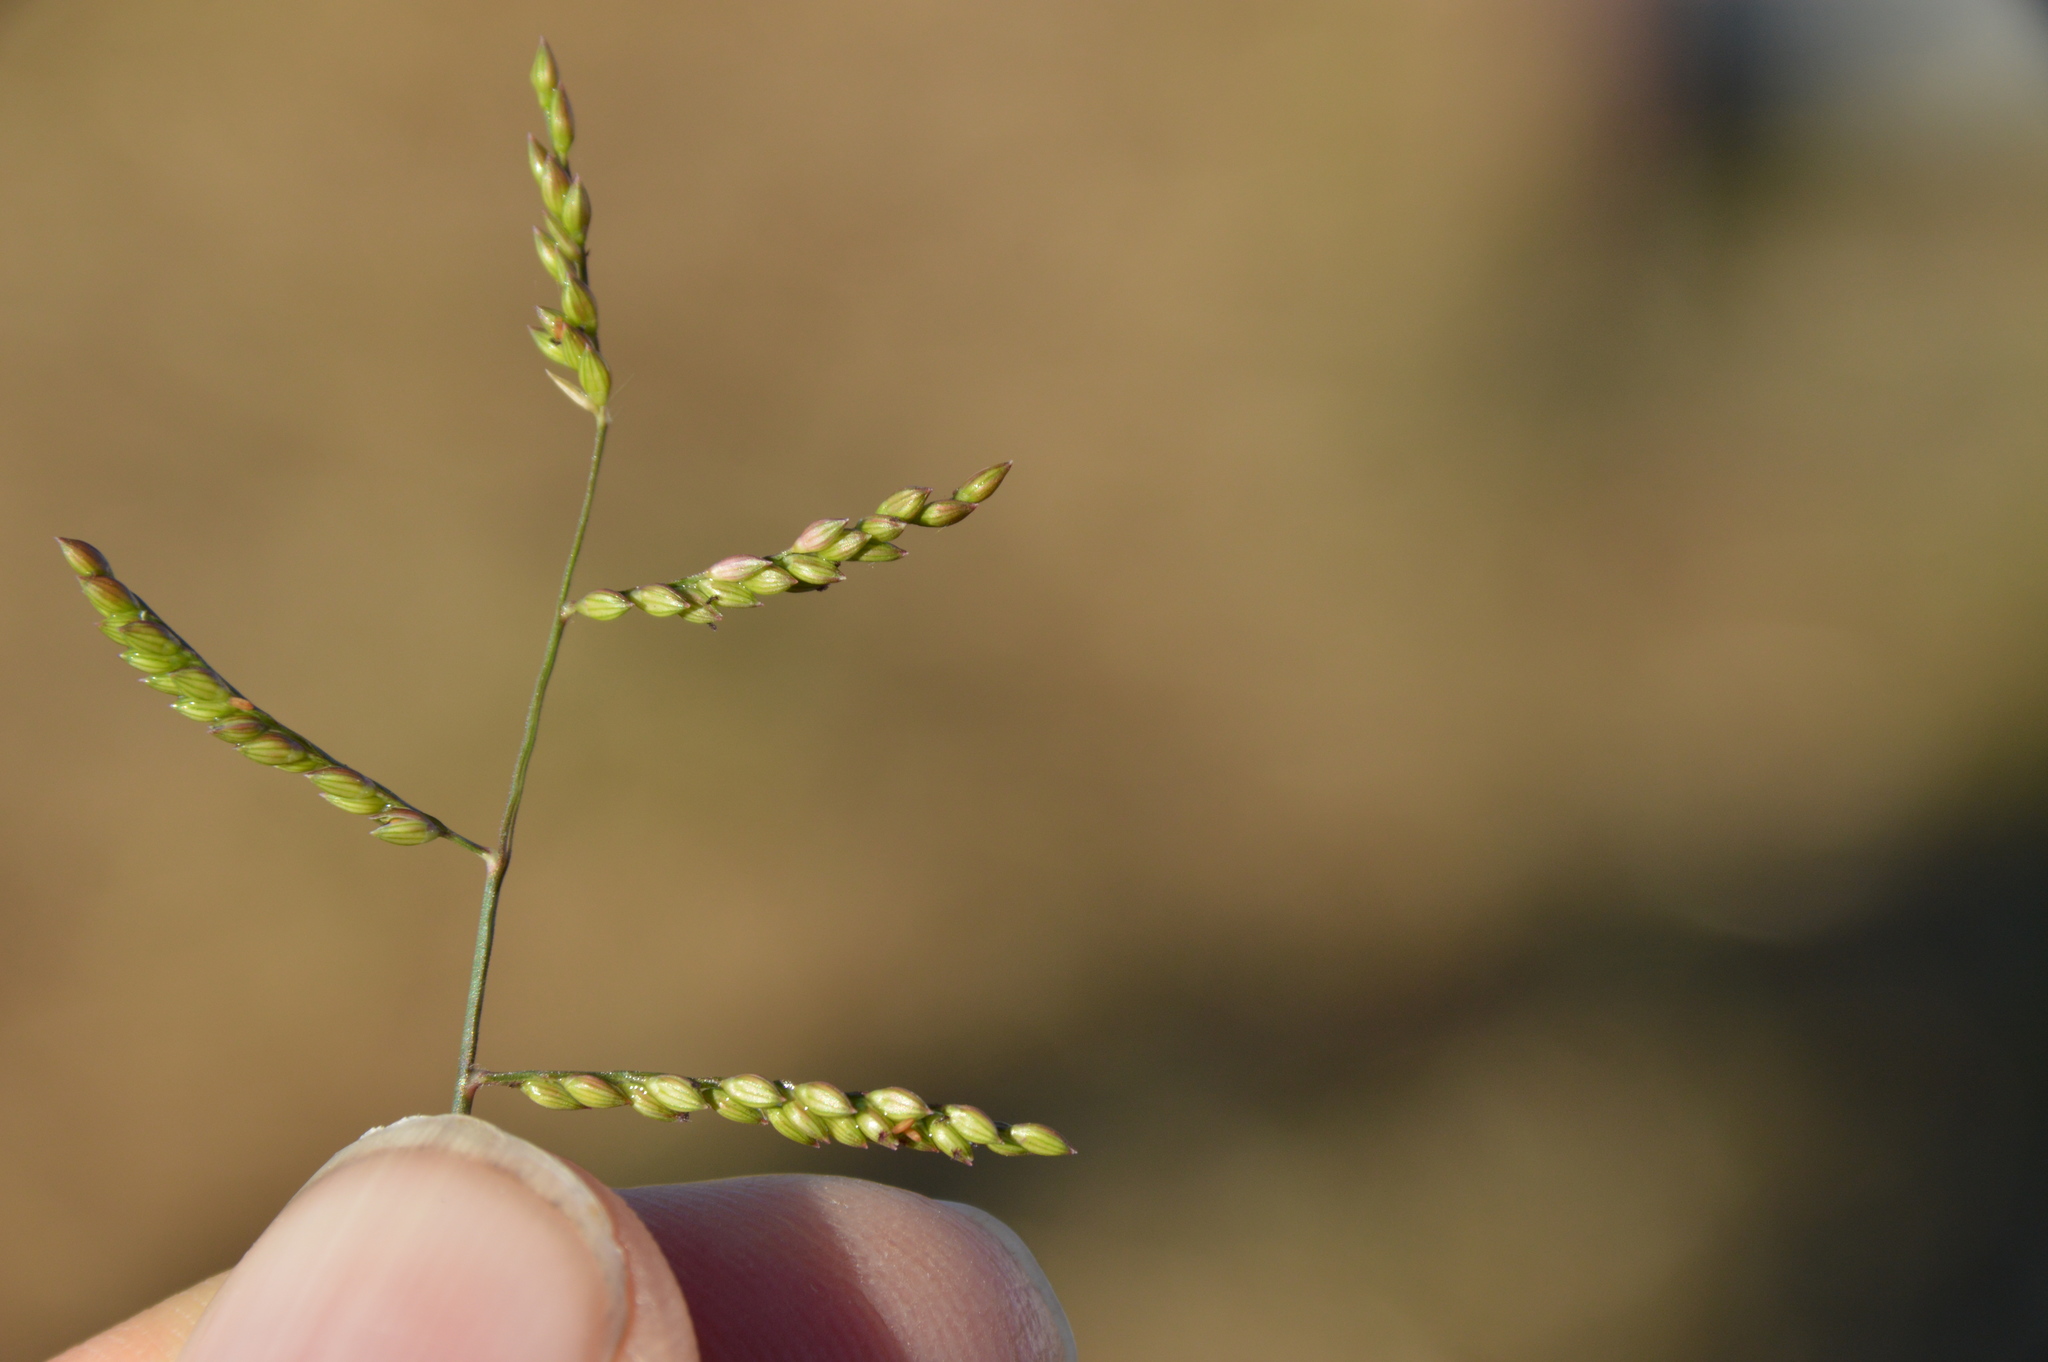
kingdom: Plantae
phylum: Tracheophyta
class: Liliopsida
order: Poales
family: Poaceae
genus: Urochloa
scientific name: Urochloa reptans
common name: Sprawling signalgrass
